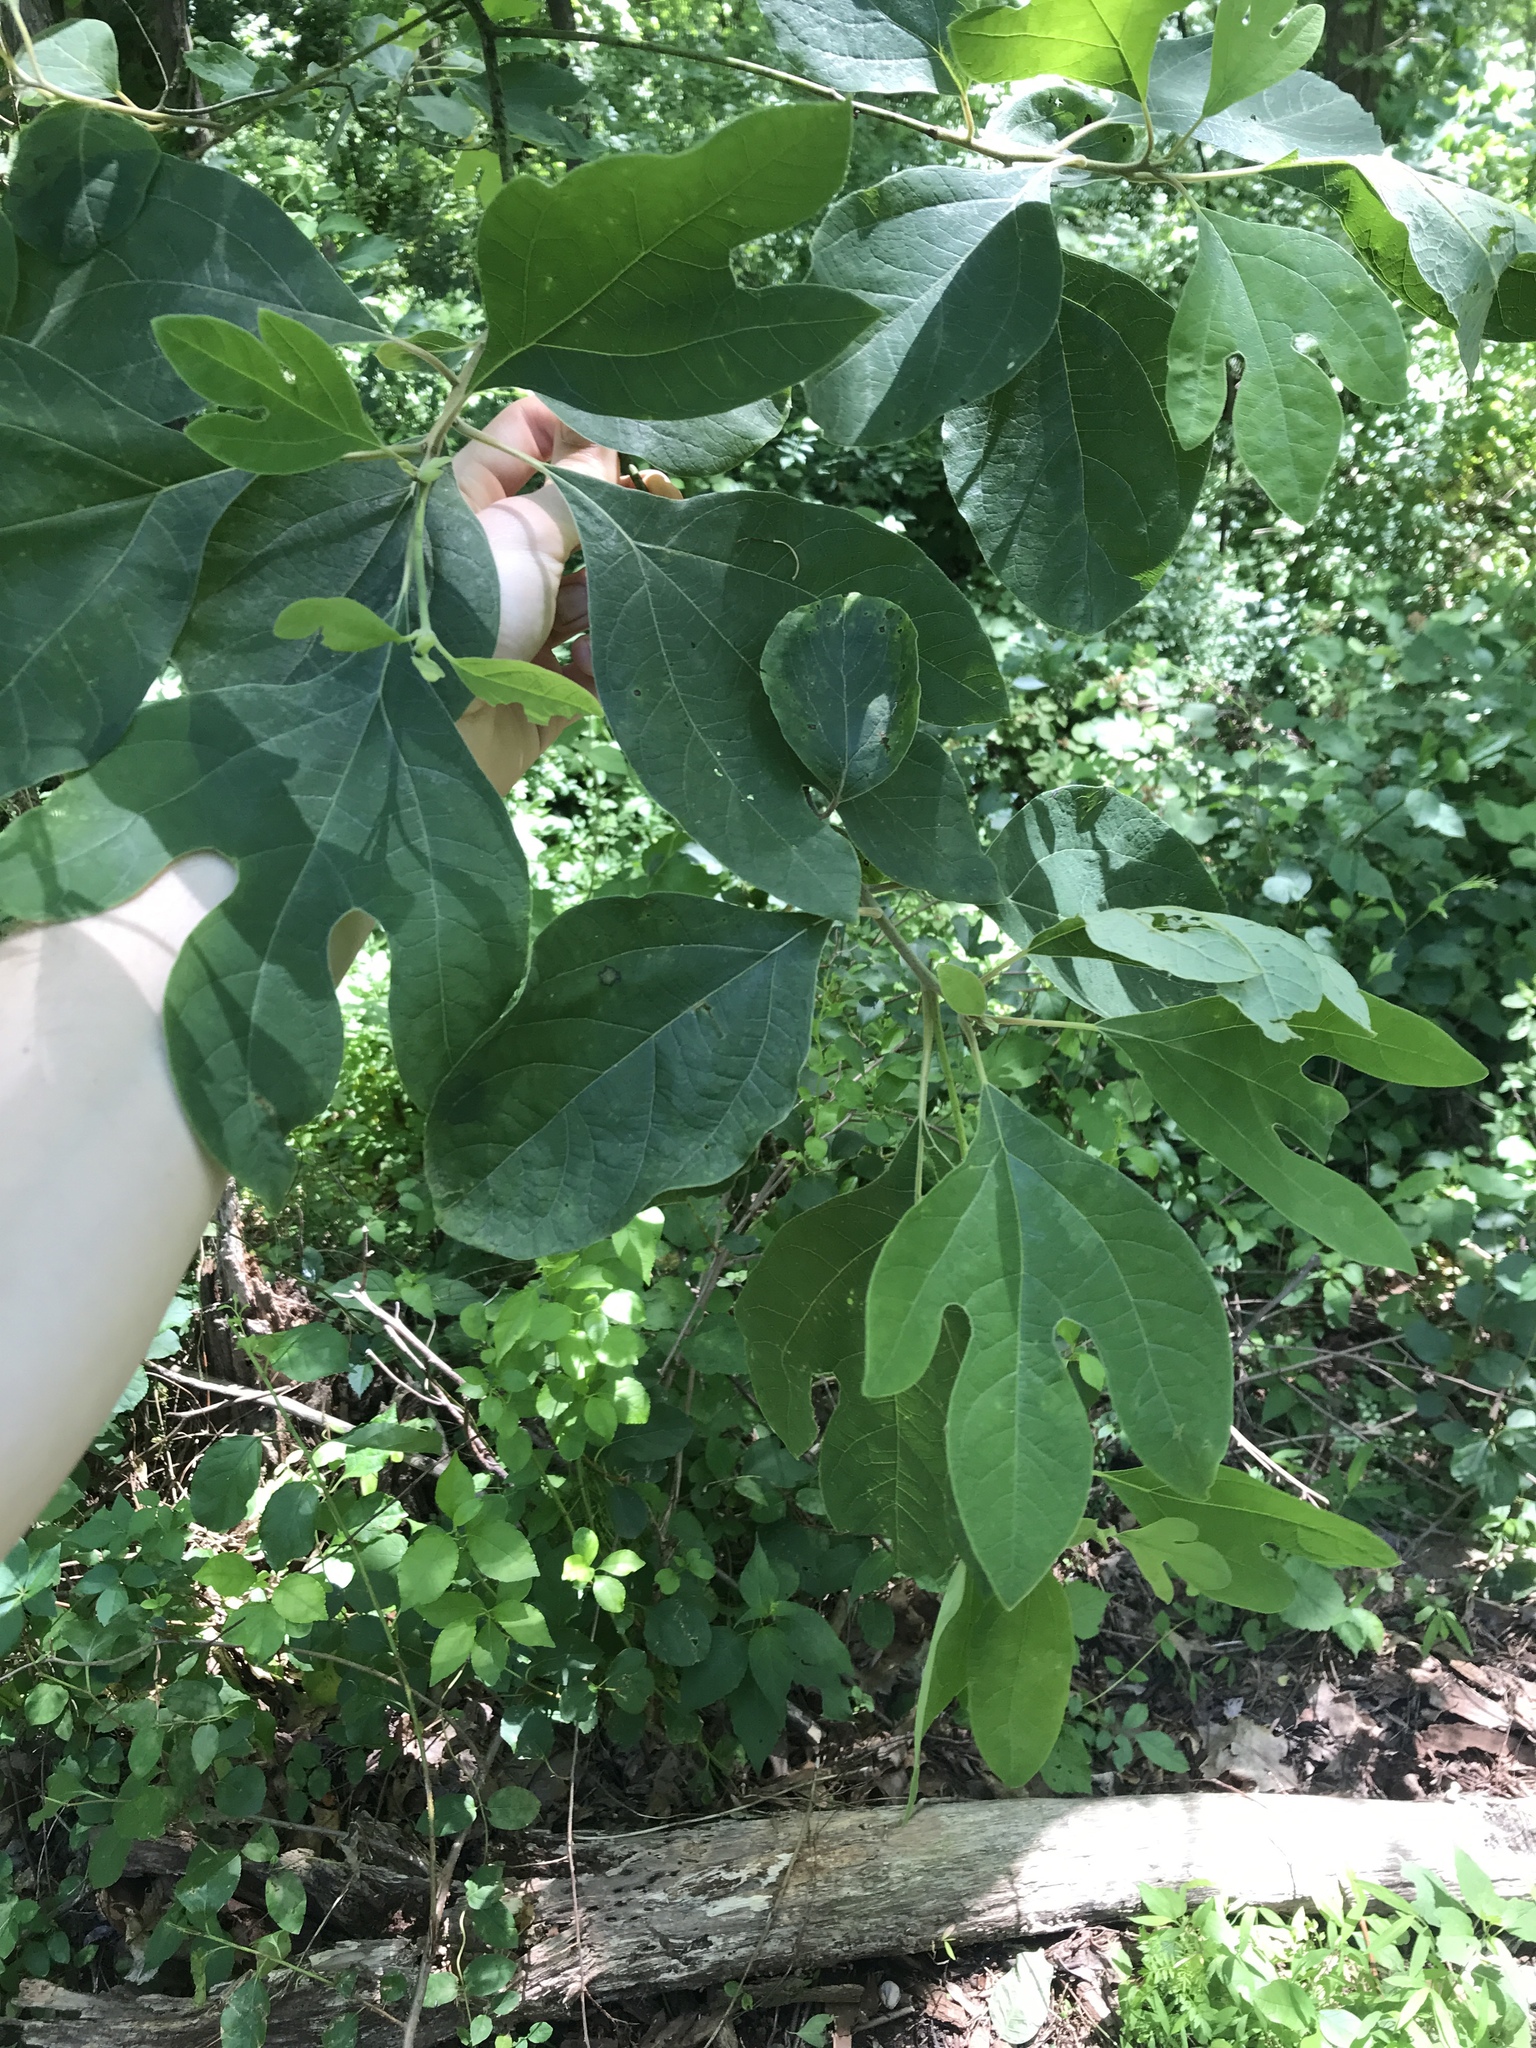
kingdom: Plantae
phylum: Tracheophyta
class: Magnoliopsida
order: Laurales
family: Lauraceae
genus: Sassafras
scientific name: Sassafras albidum
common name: Sassafras
